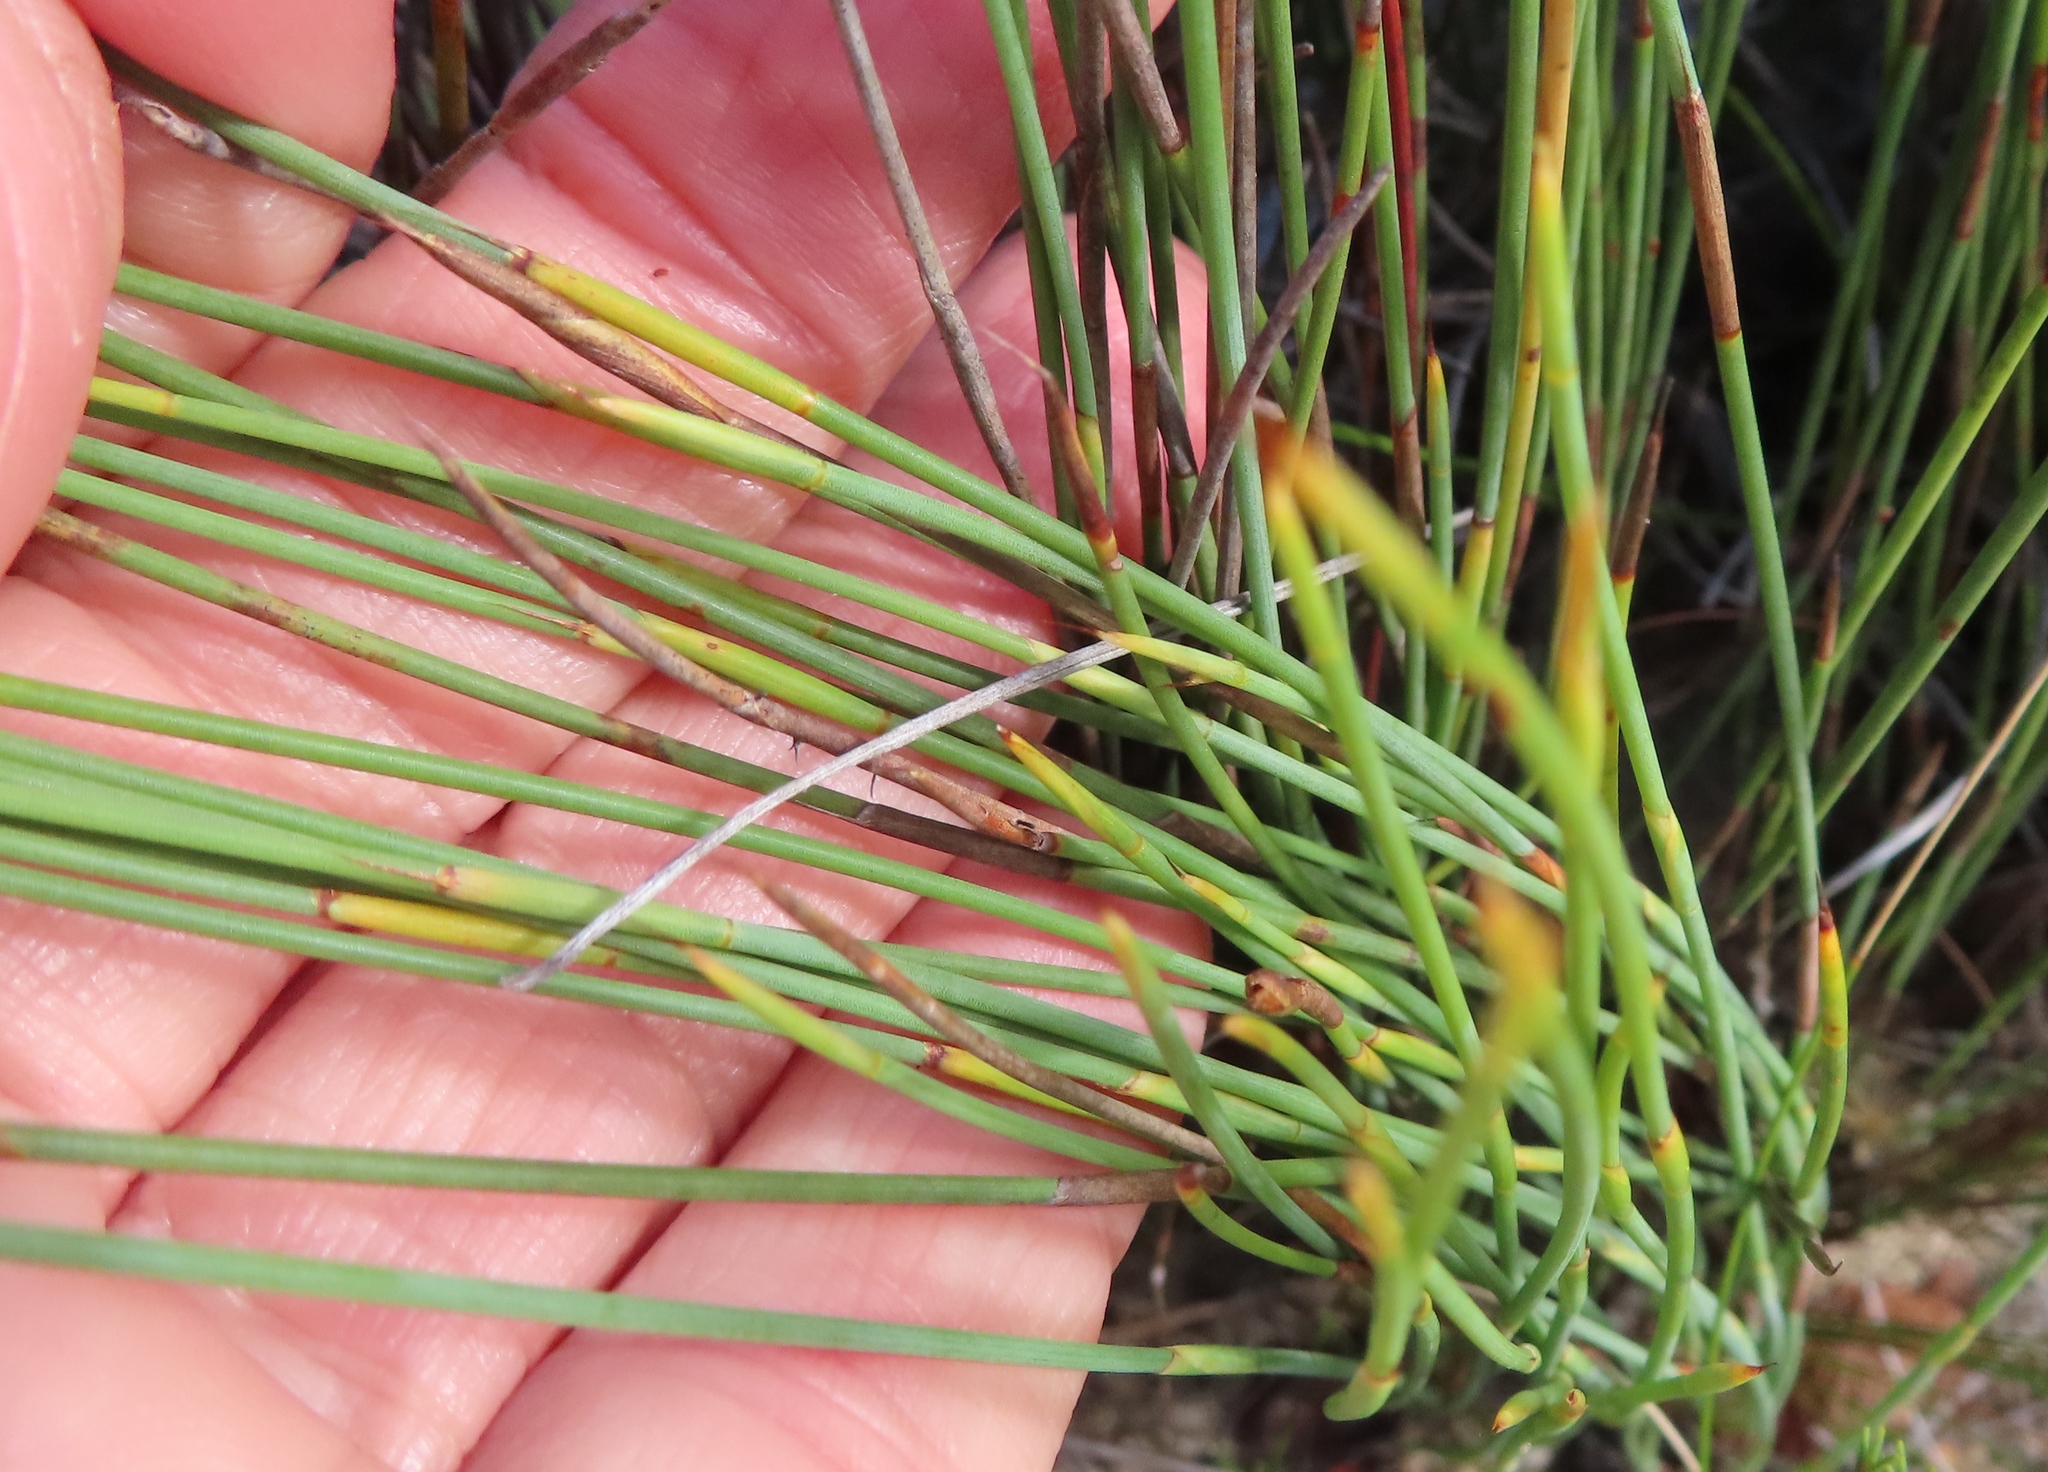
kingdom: Plantae
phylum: Tracheophyta
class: Liliopsida
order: Poales
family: Restionaceae
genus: Hypodiscus
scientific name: Hypodiscus rigidus
